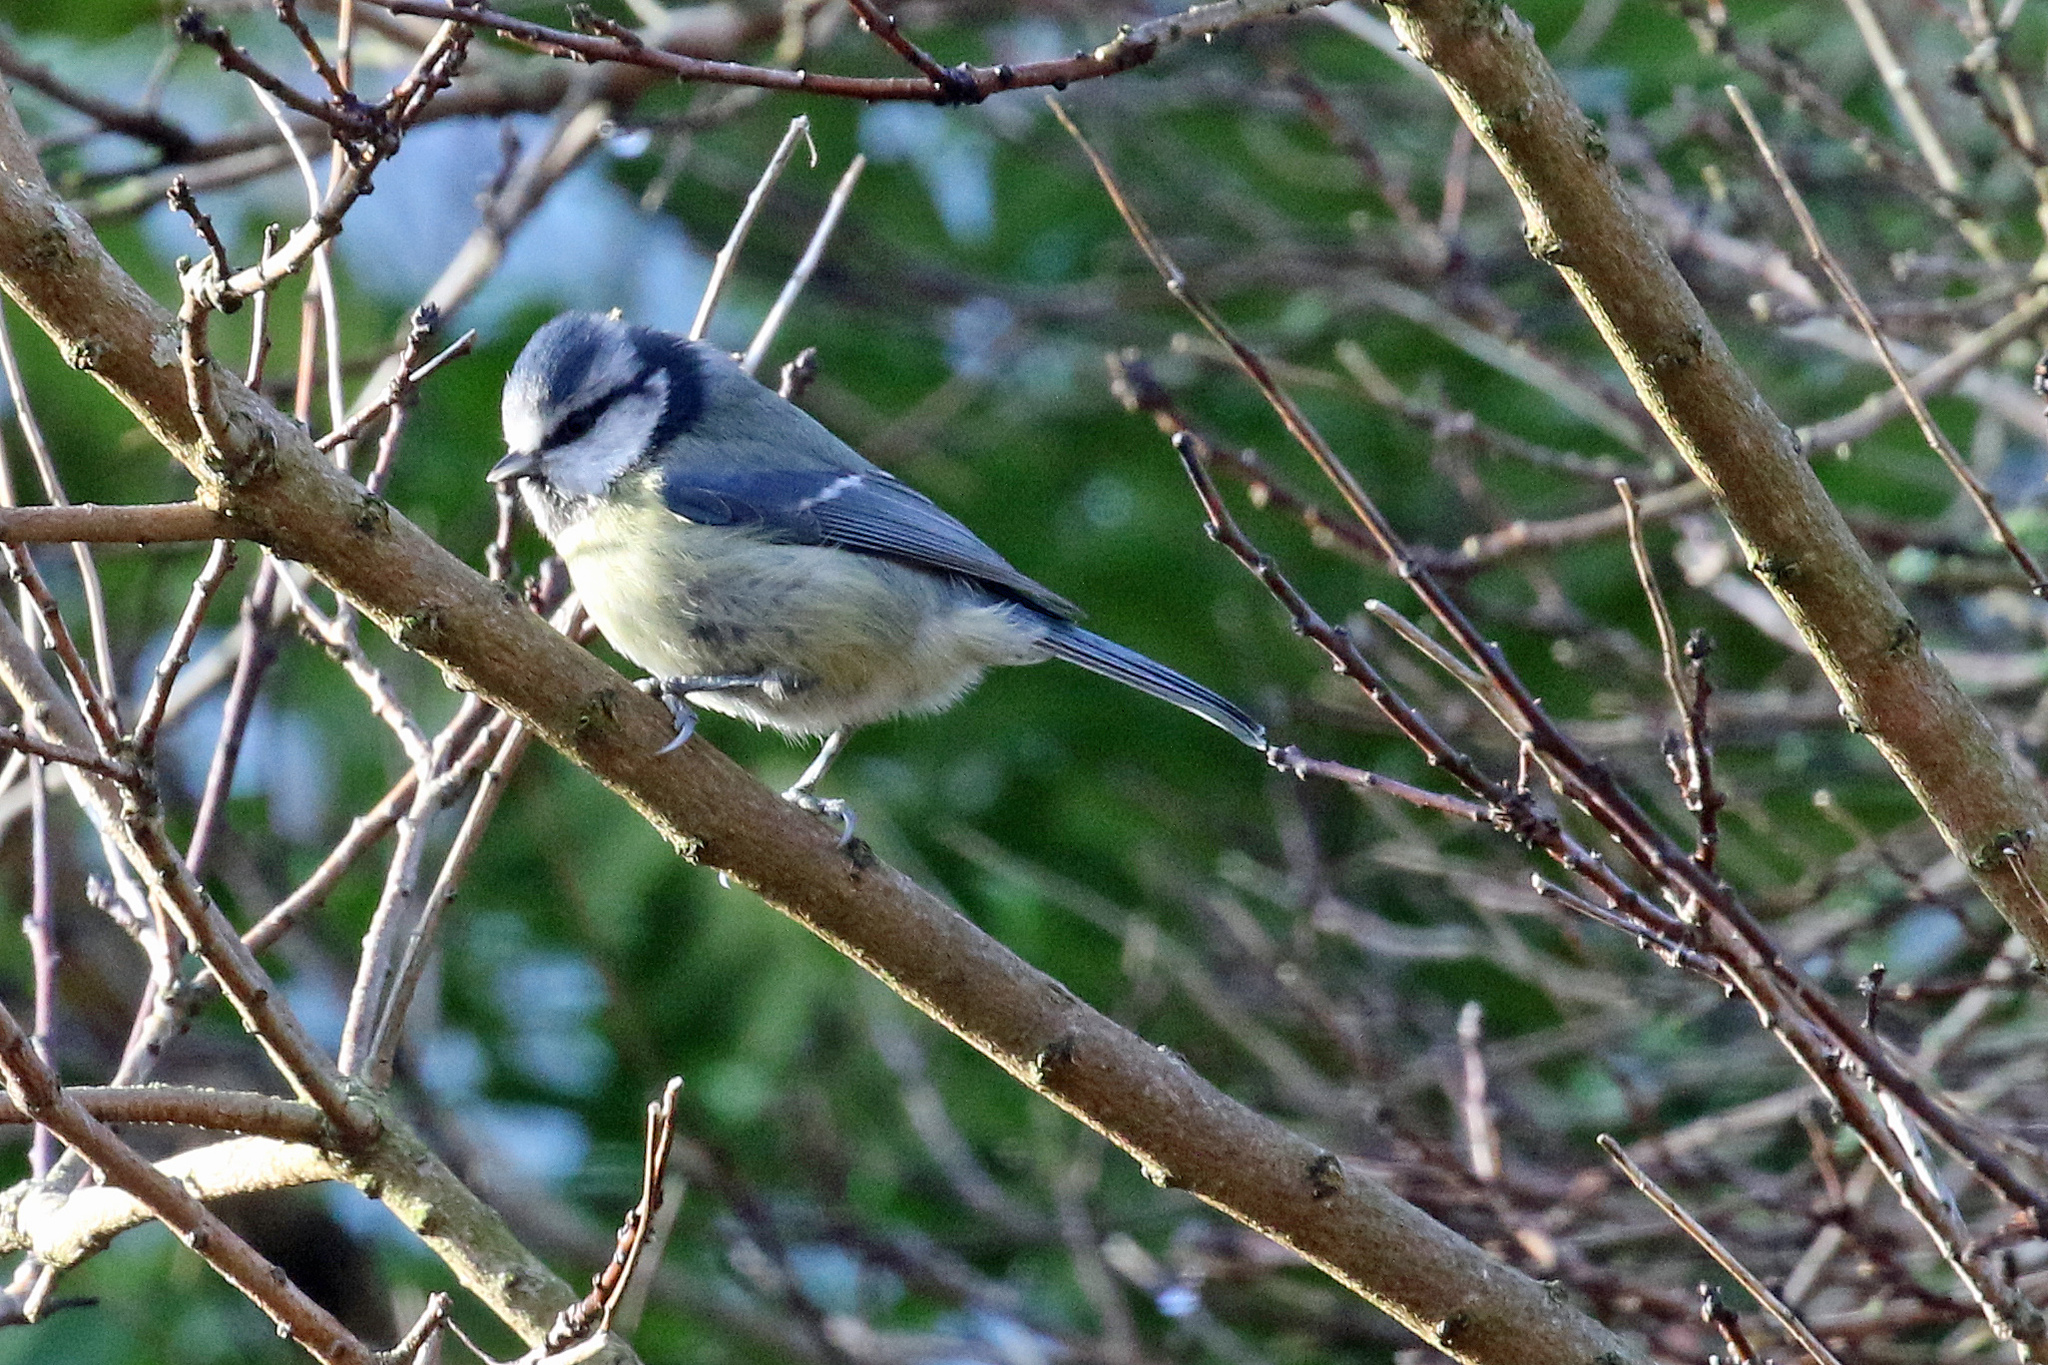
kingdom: Animalia
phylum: Chordata
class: Aves
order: Passeriformes
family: Paridae
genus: Cyanistes
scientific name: Cyanistes caeruleus
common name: Eurasian blue tit
